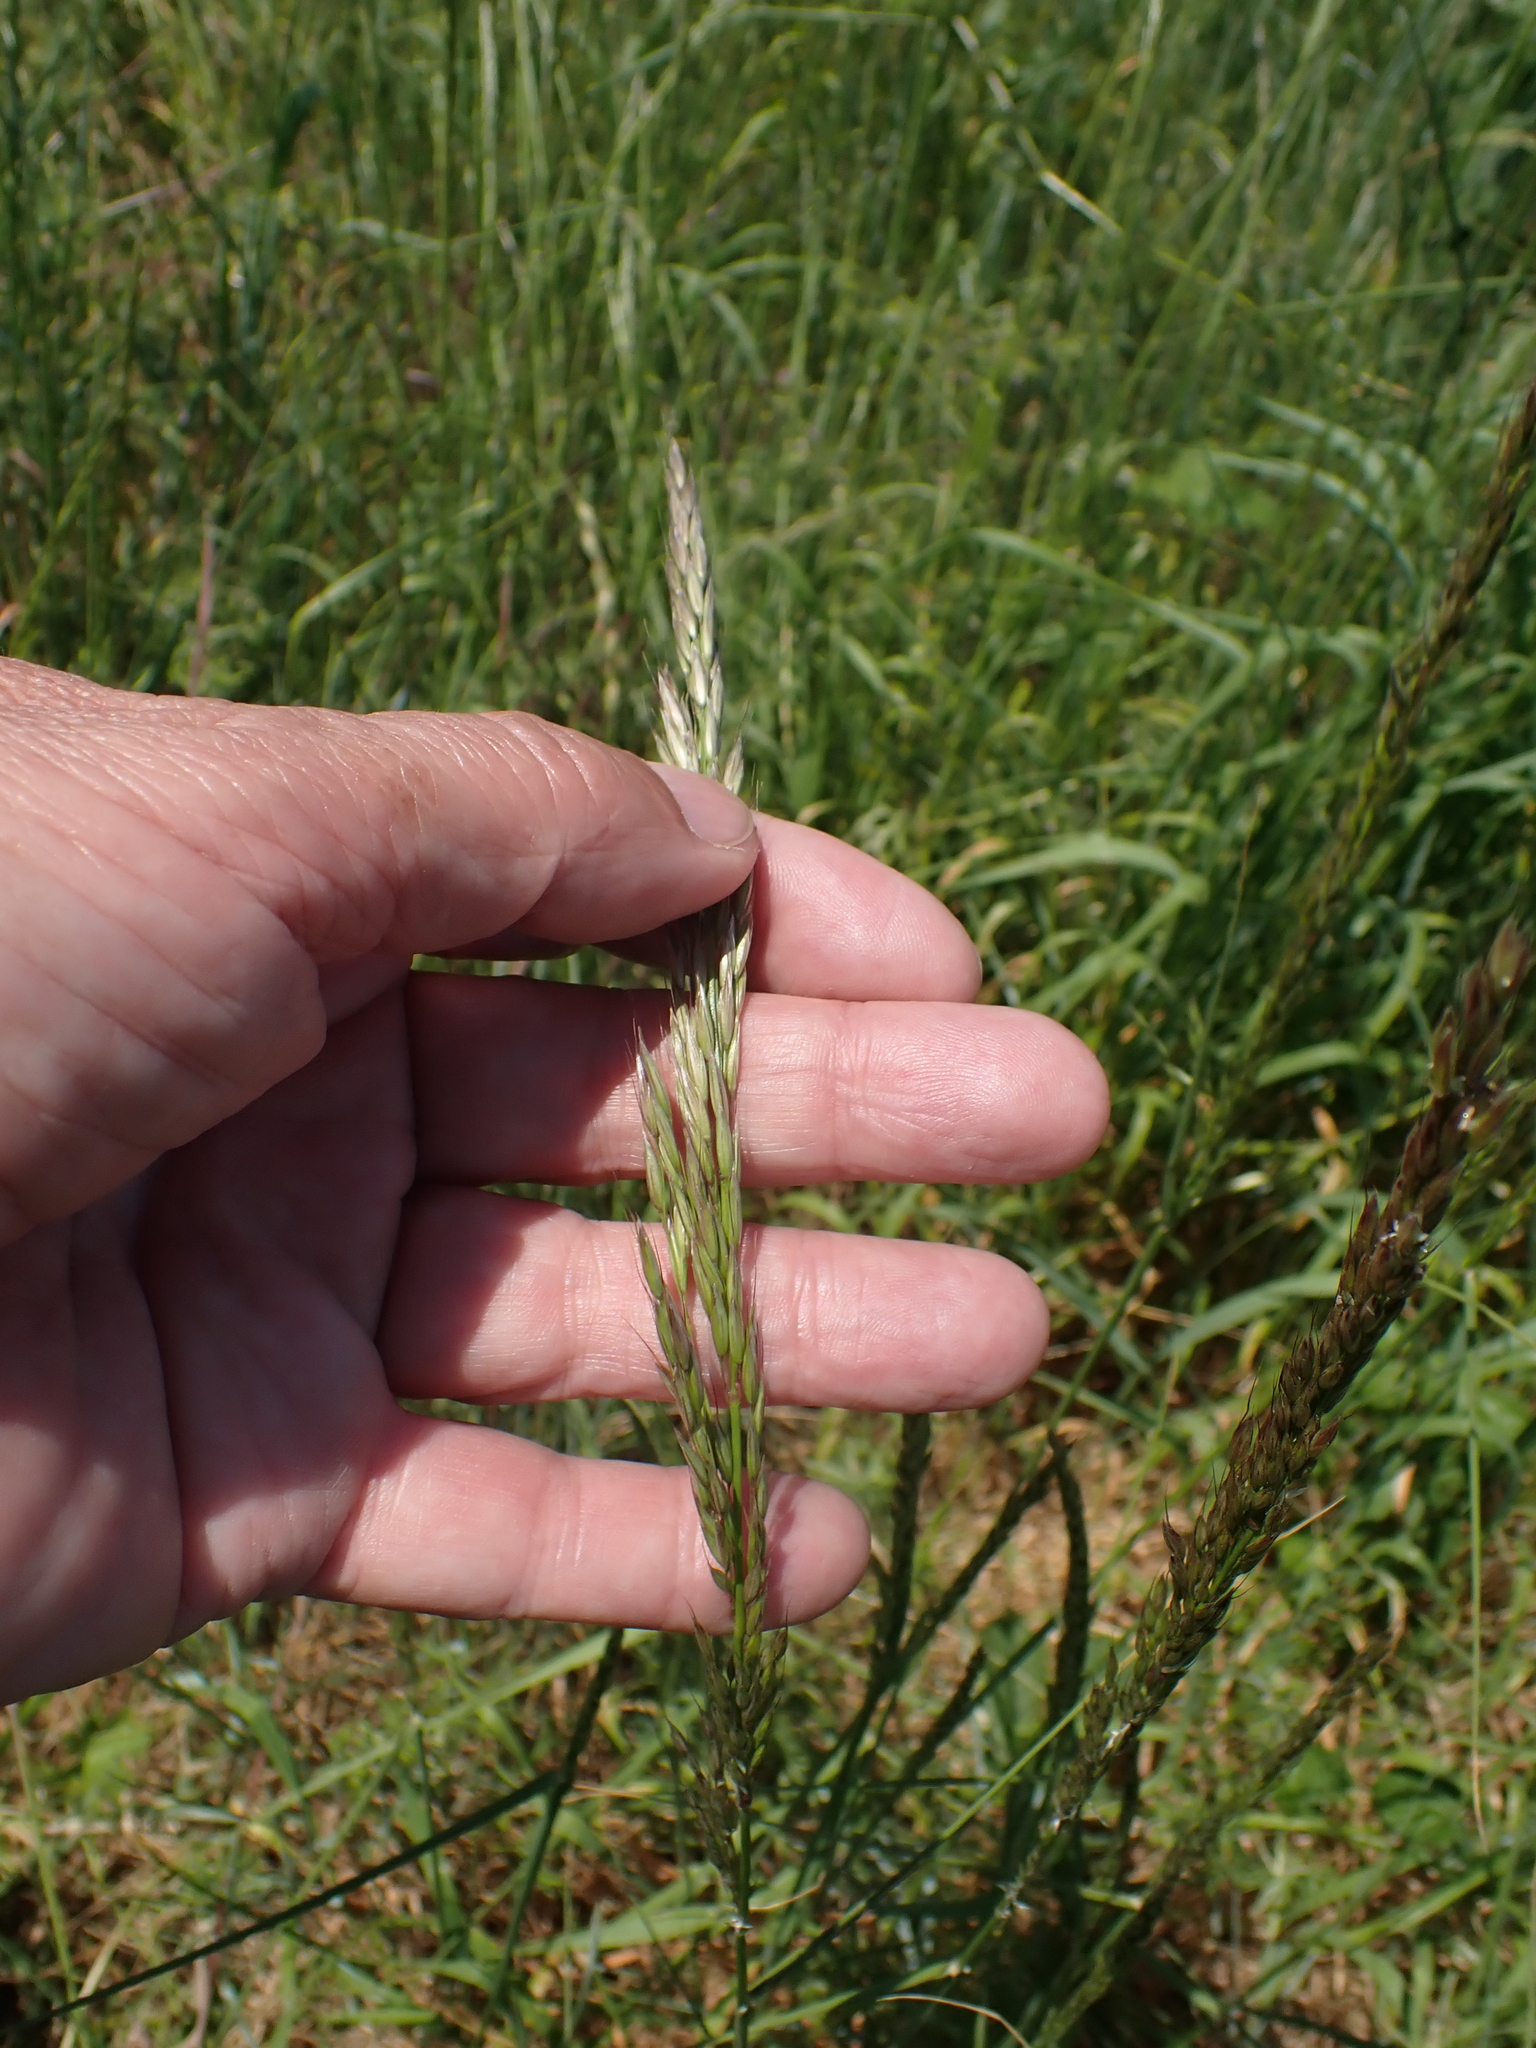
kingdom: Plantae
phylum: Tracheophyta
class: Liliopsida
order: Poales
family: Poaceae
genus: Arrhenatherum
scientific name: Arrhenatherum elatius
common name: Tall oatgrass
